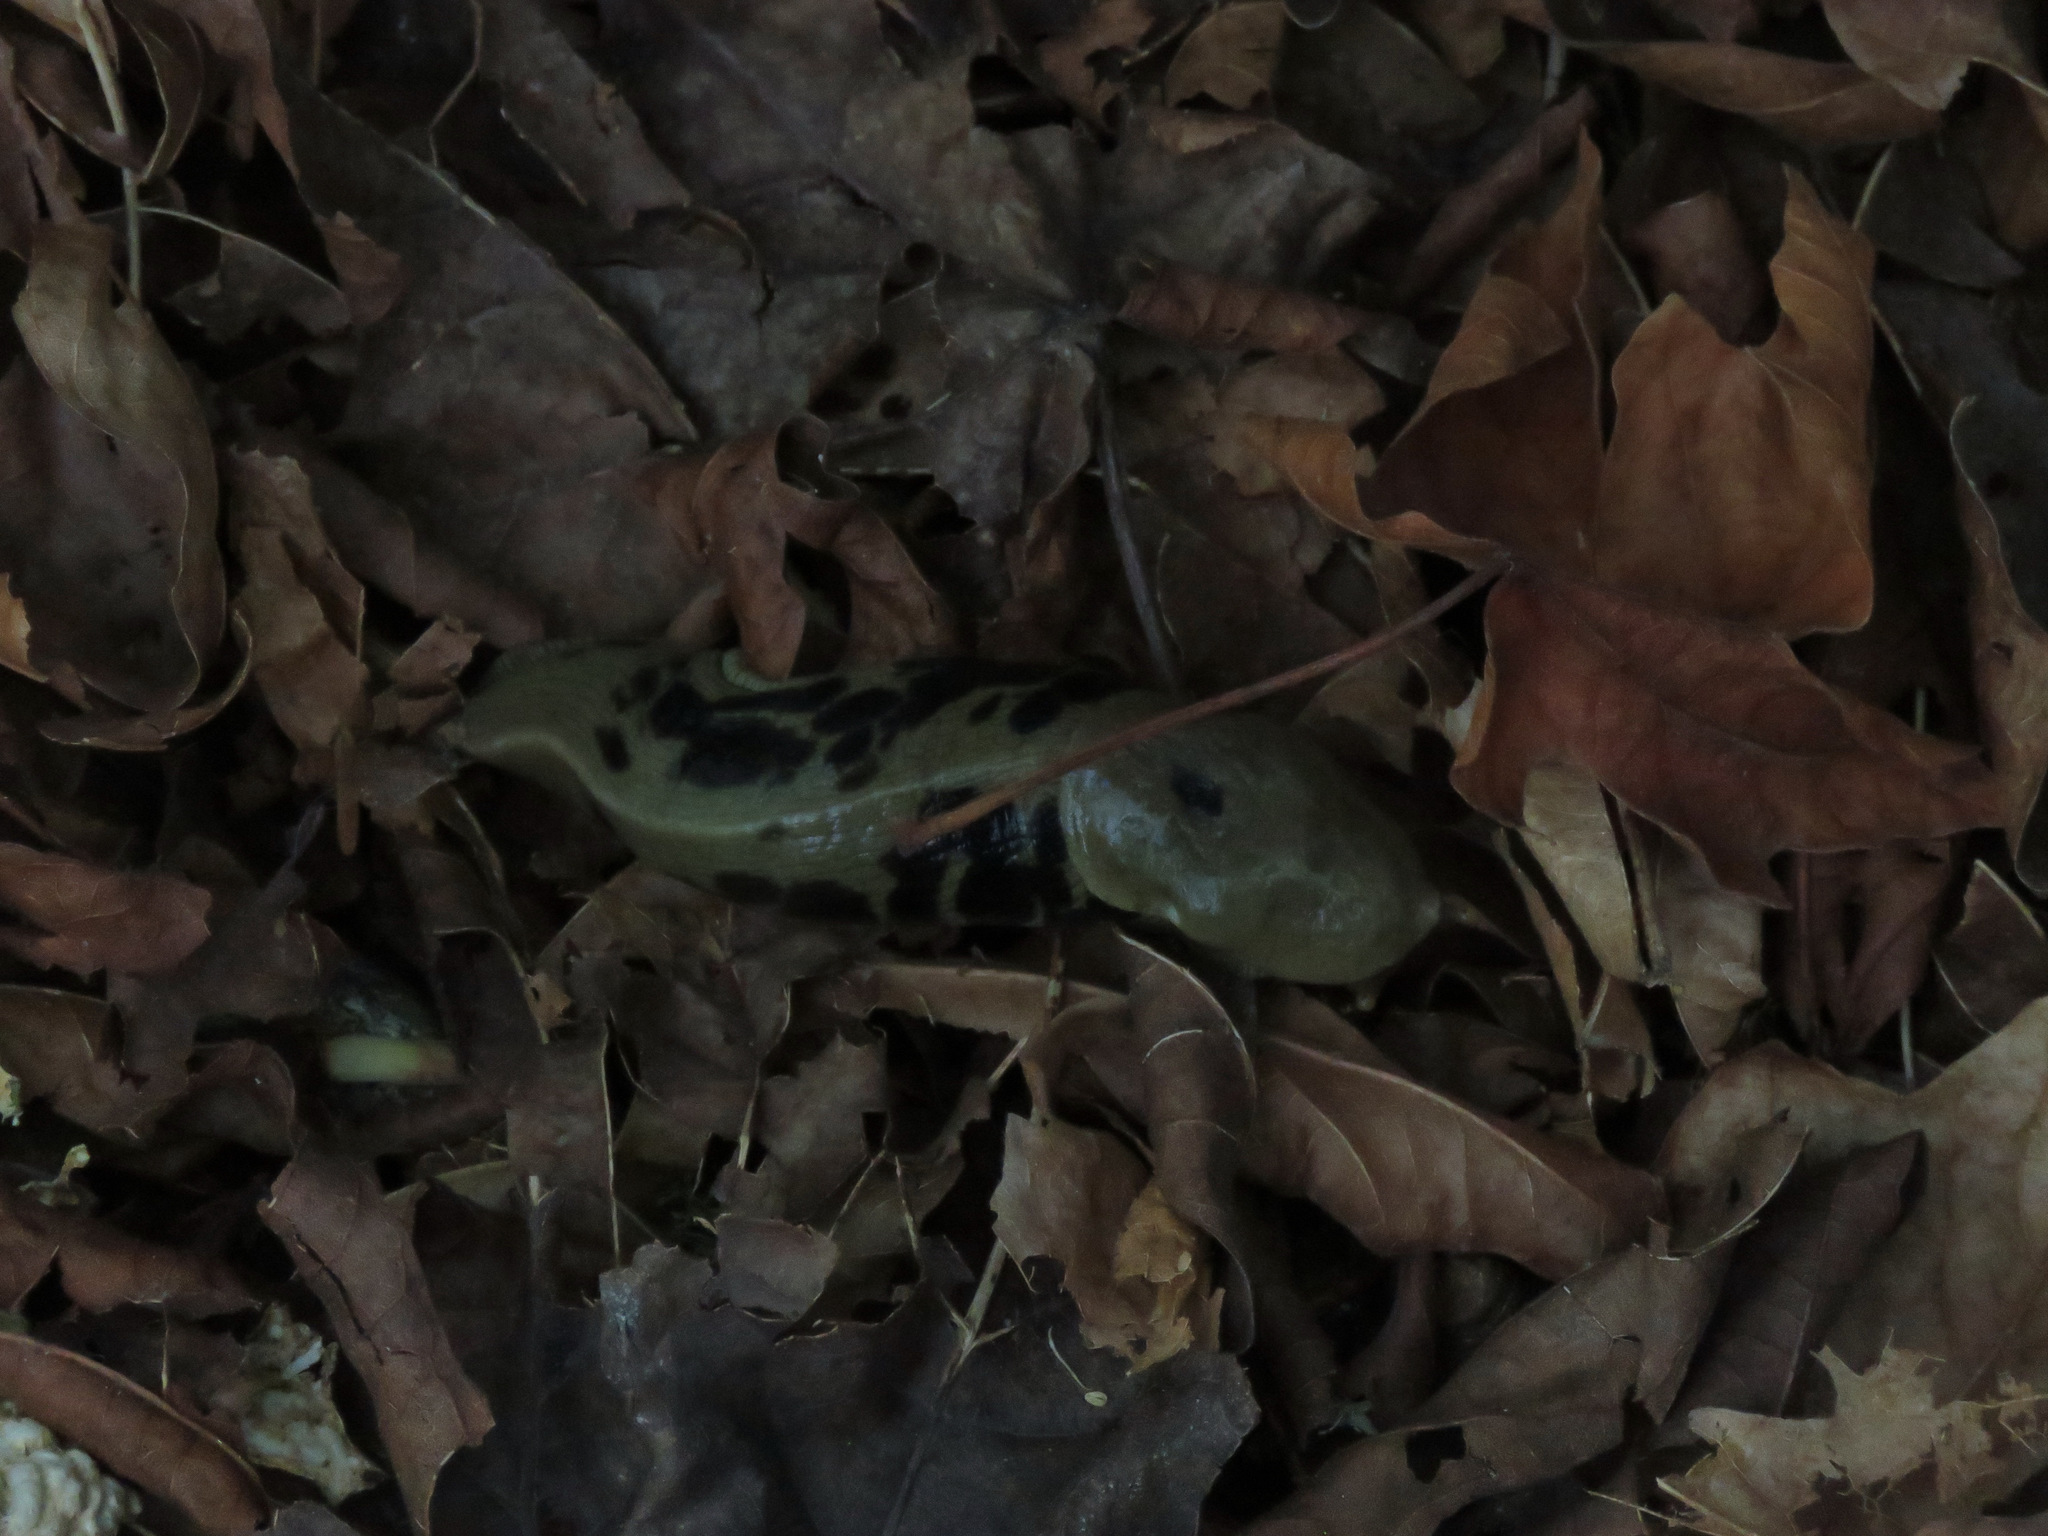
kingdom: Animalia
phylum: Mollusca
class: Gastropoda
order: Stylommatophora
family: Ariolimacidae
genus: Ariolimax
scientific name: Ariolimax columbianus
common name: Pacific banana slug
